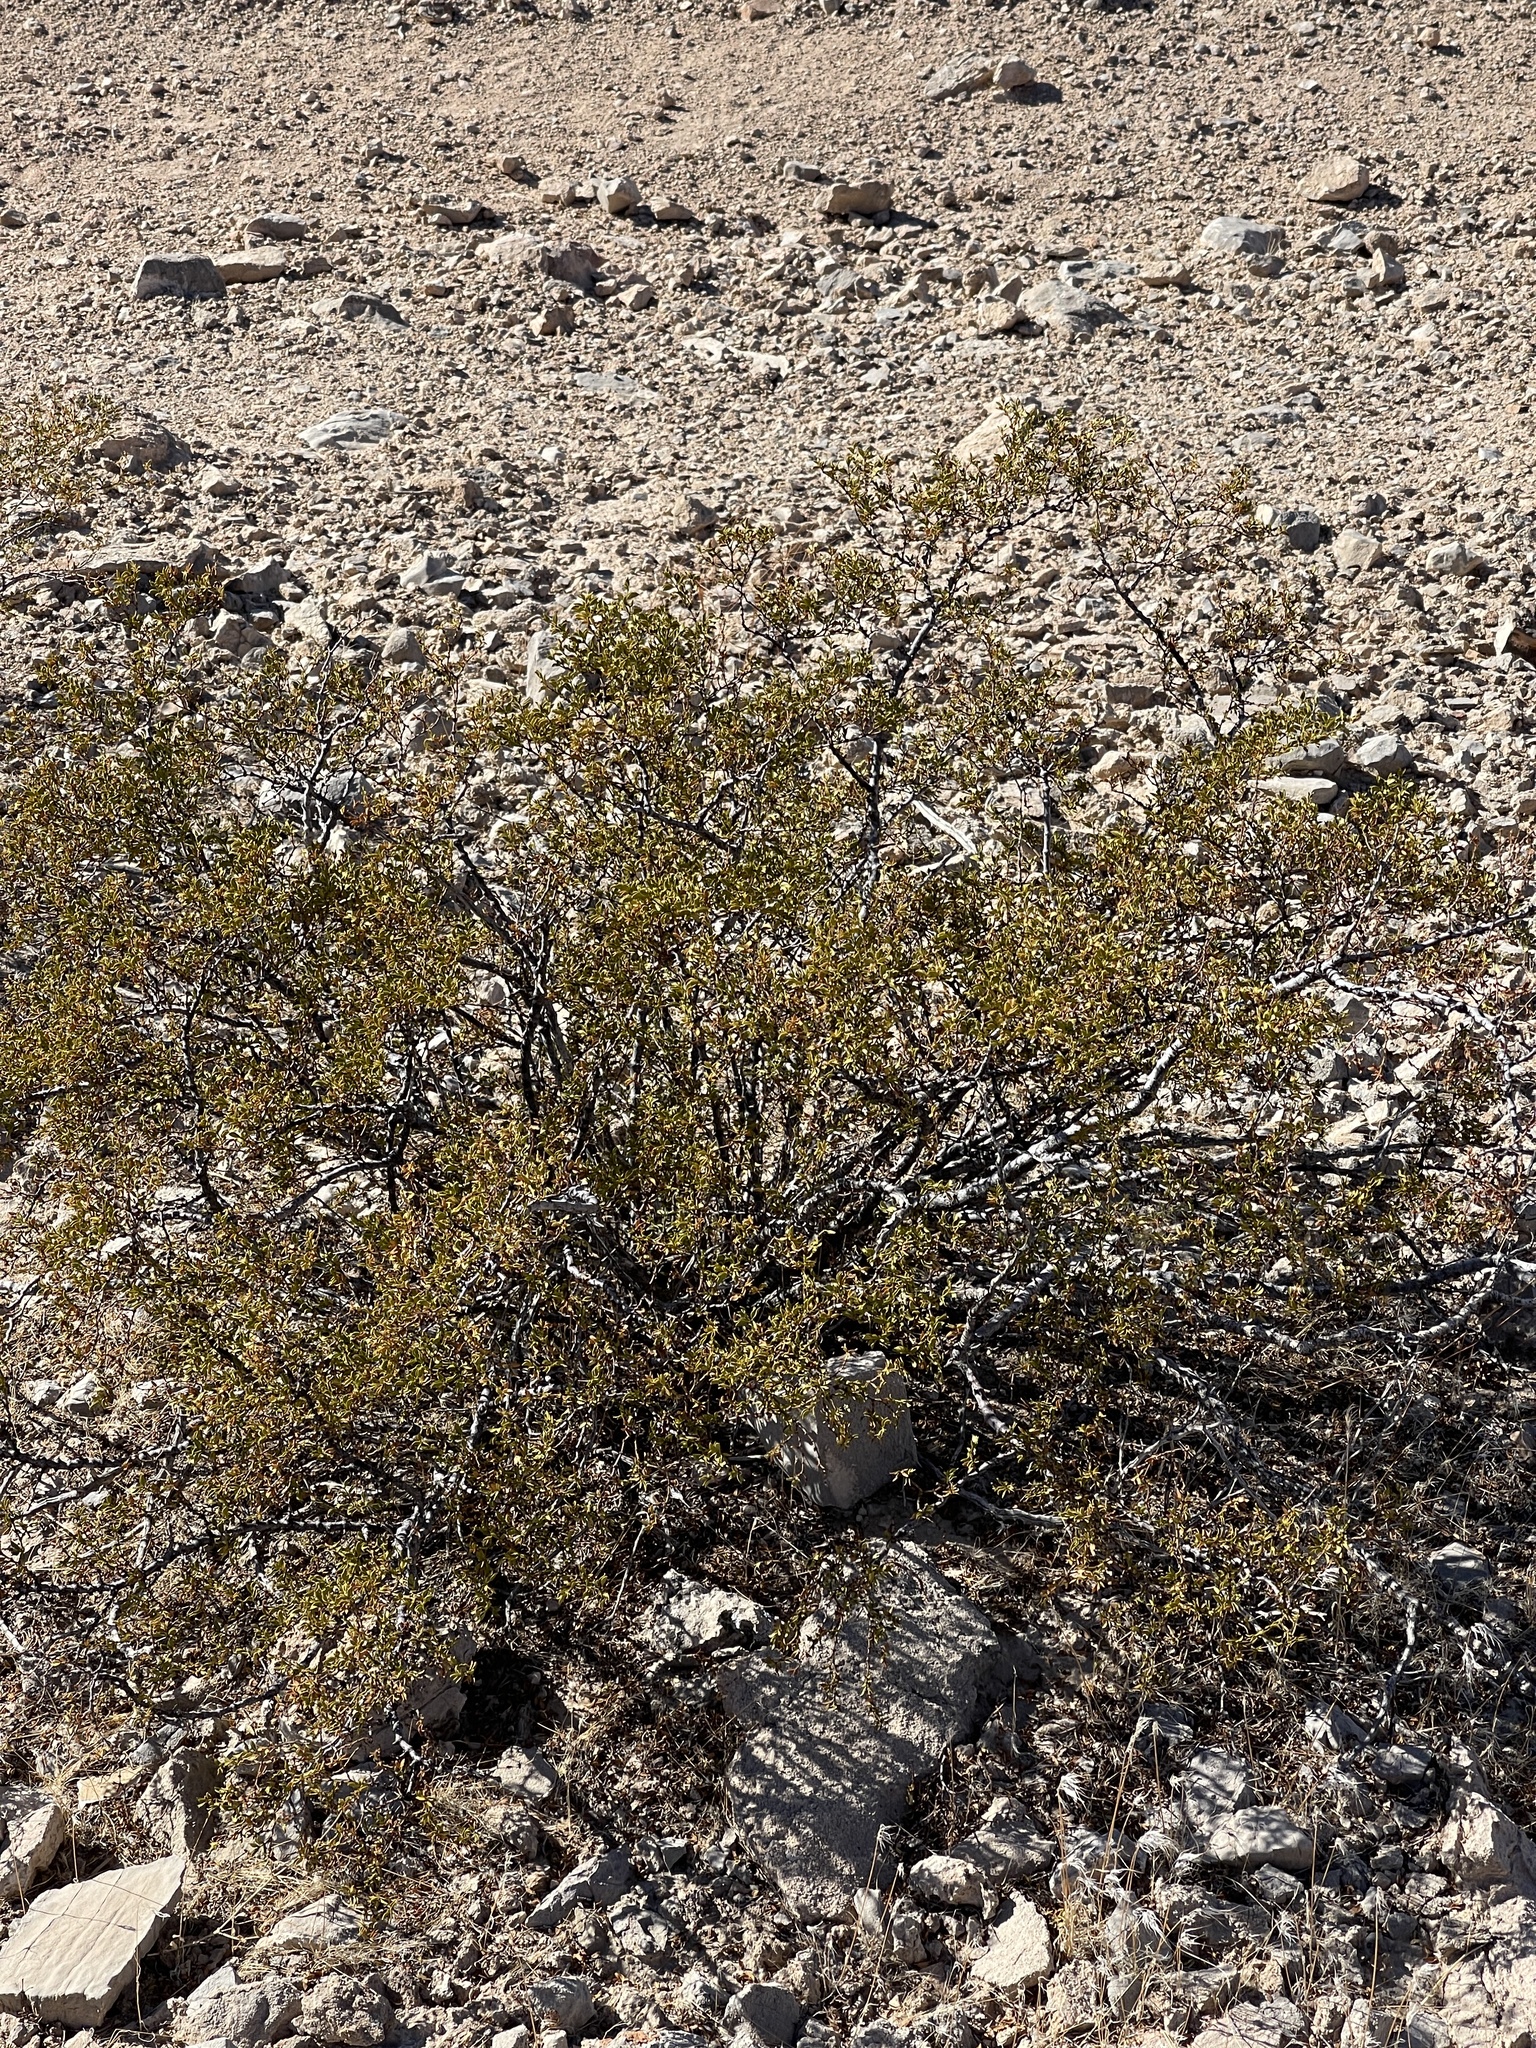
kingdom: Plantae
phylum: Tracheophyta
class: Magnoliopsida
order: Zygophyllales
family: Zygophyllaceae
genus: Larrea
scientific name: Larrea tridentata
